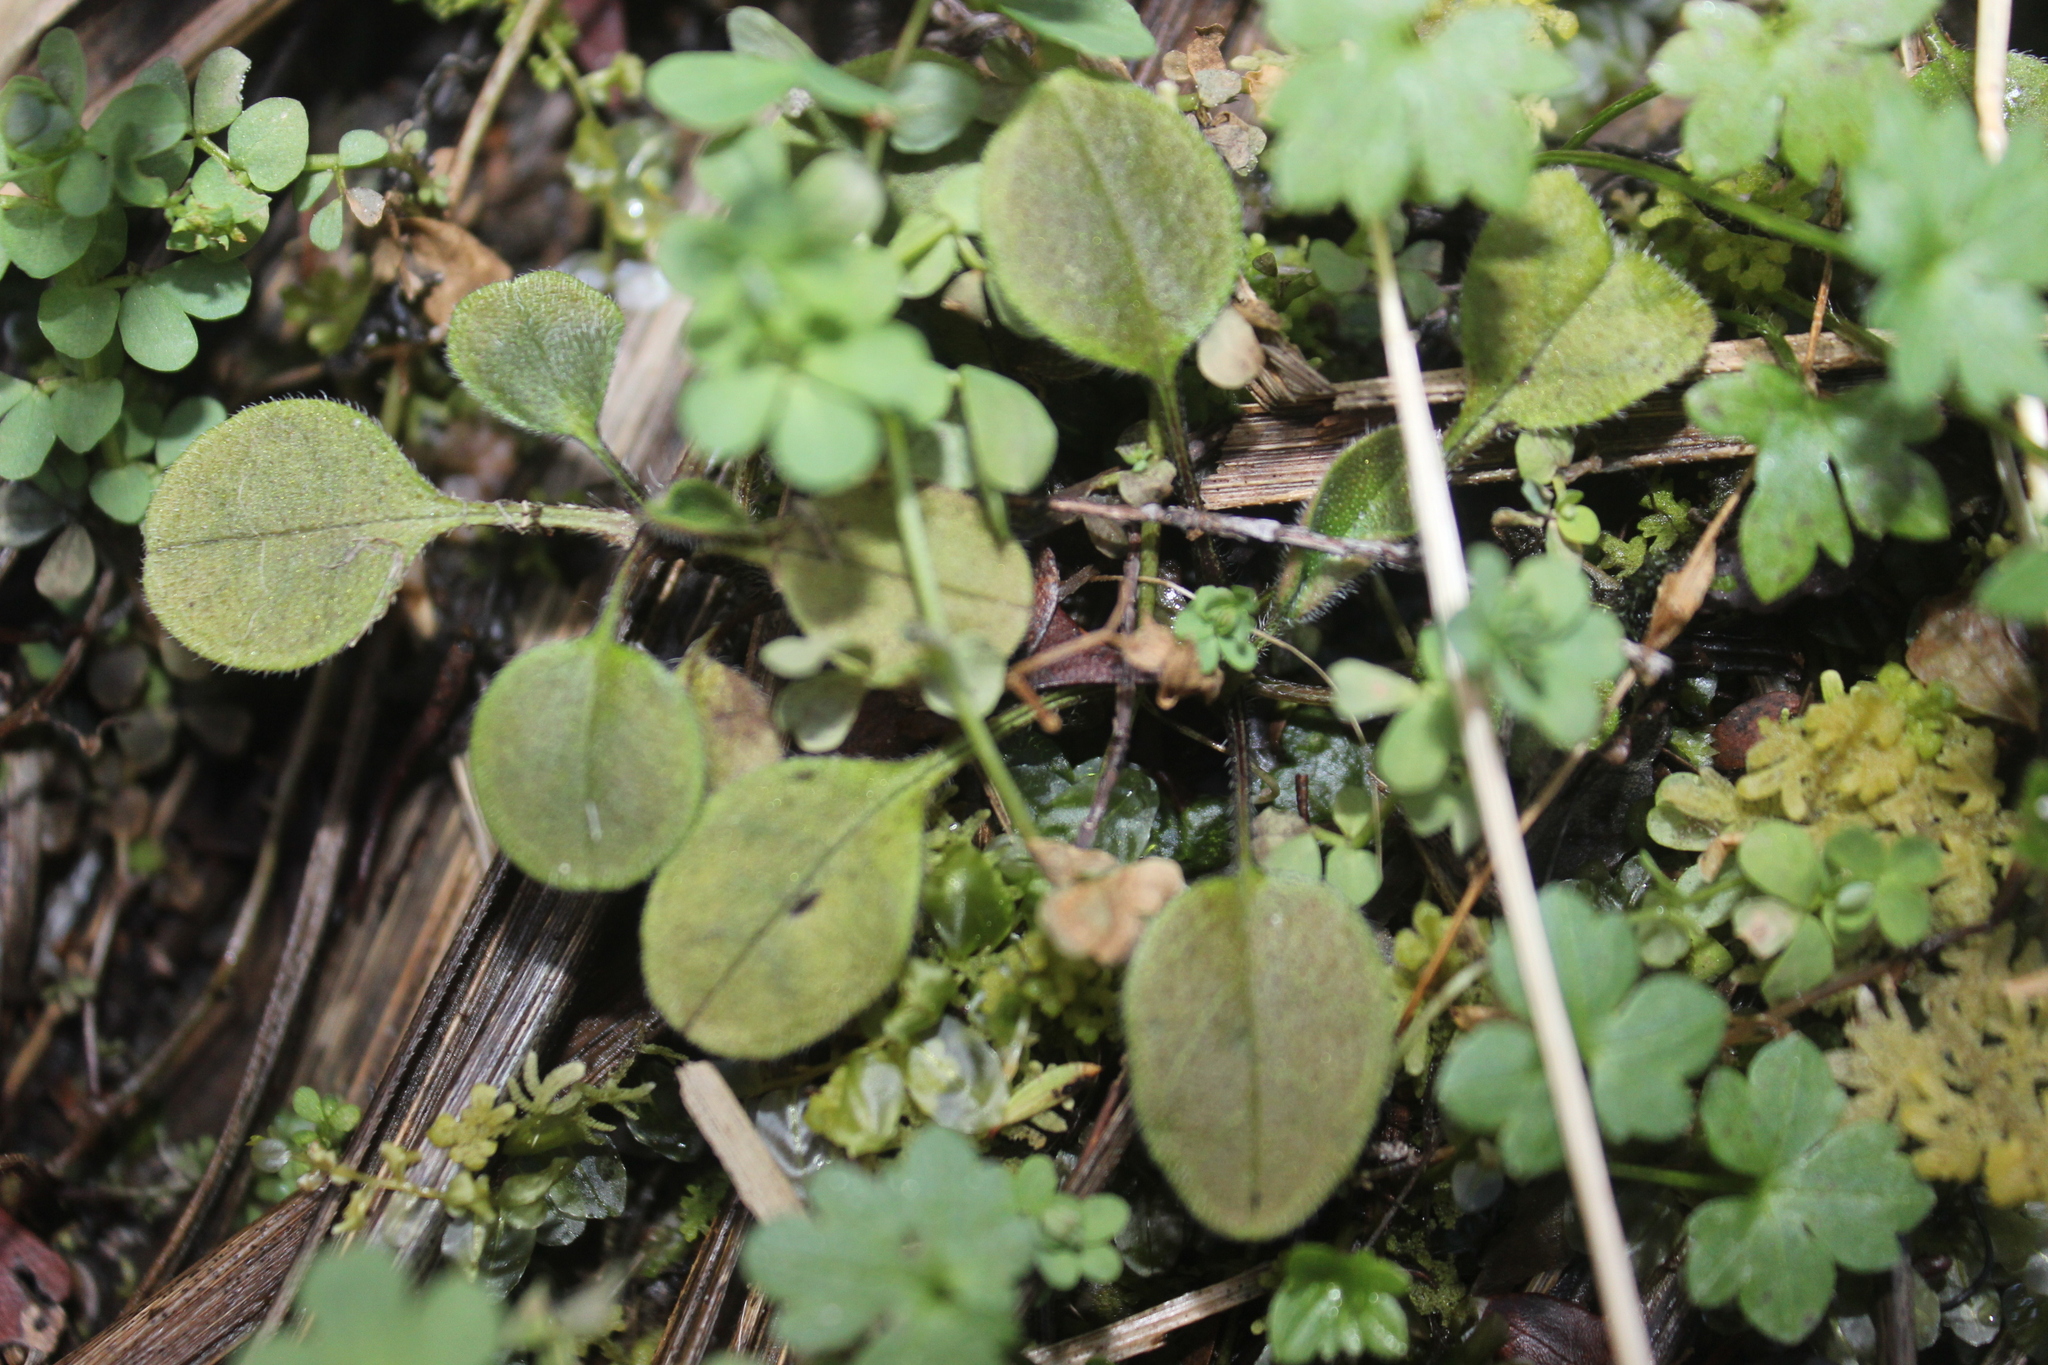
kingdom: Plantae
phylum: Tracheophyta
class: Magnoliopsida
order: Boraginales
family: Boraginaceae
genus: Myosotis
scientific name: Myosotis forsteri
